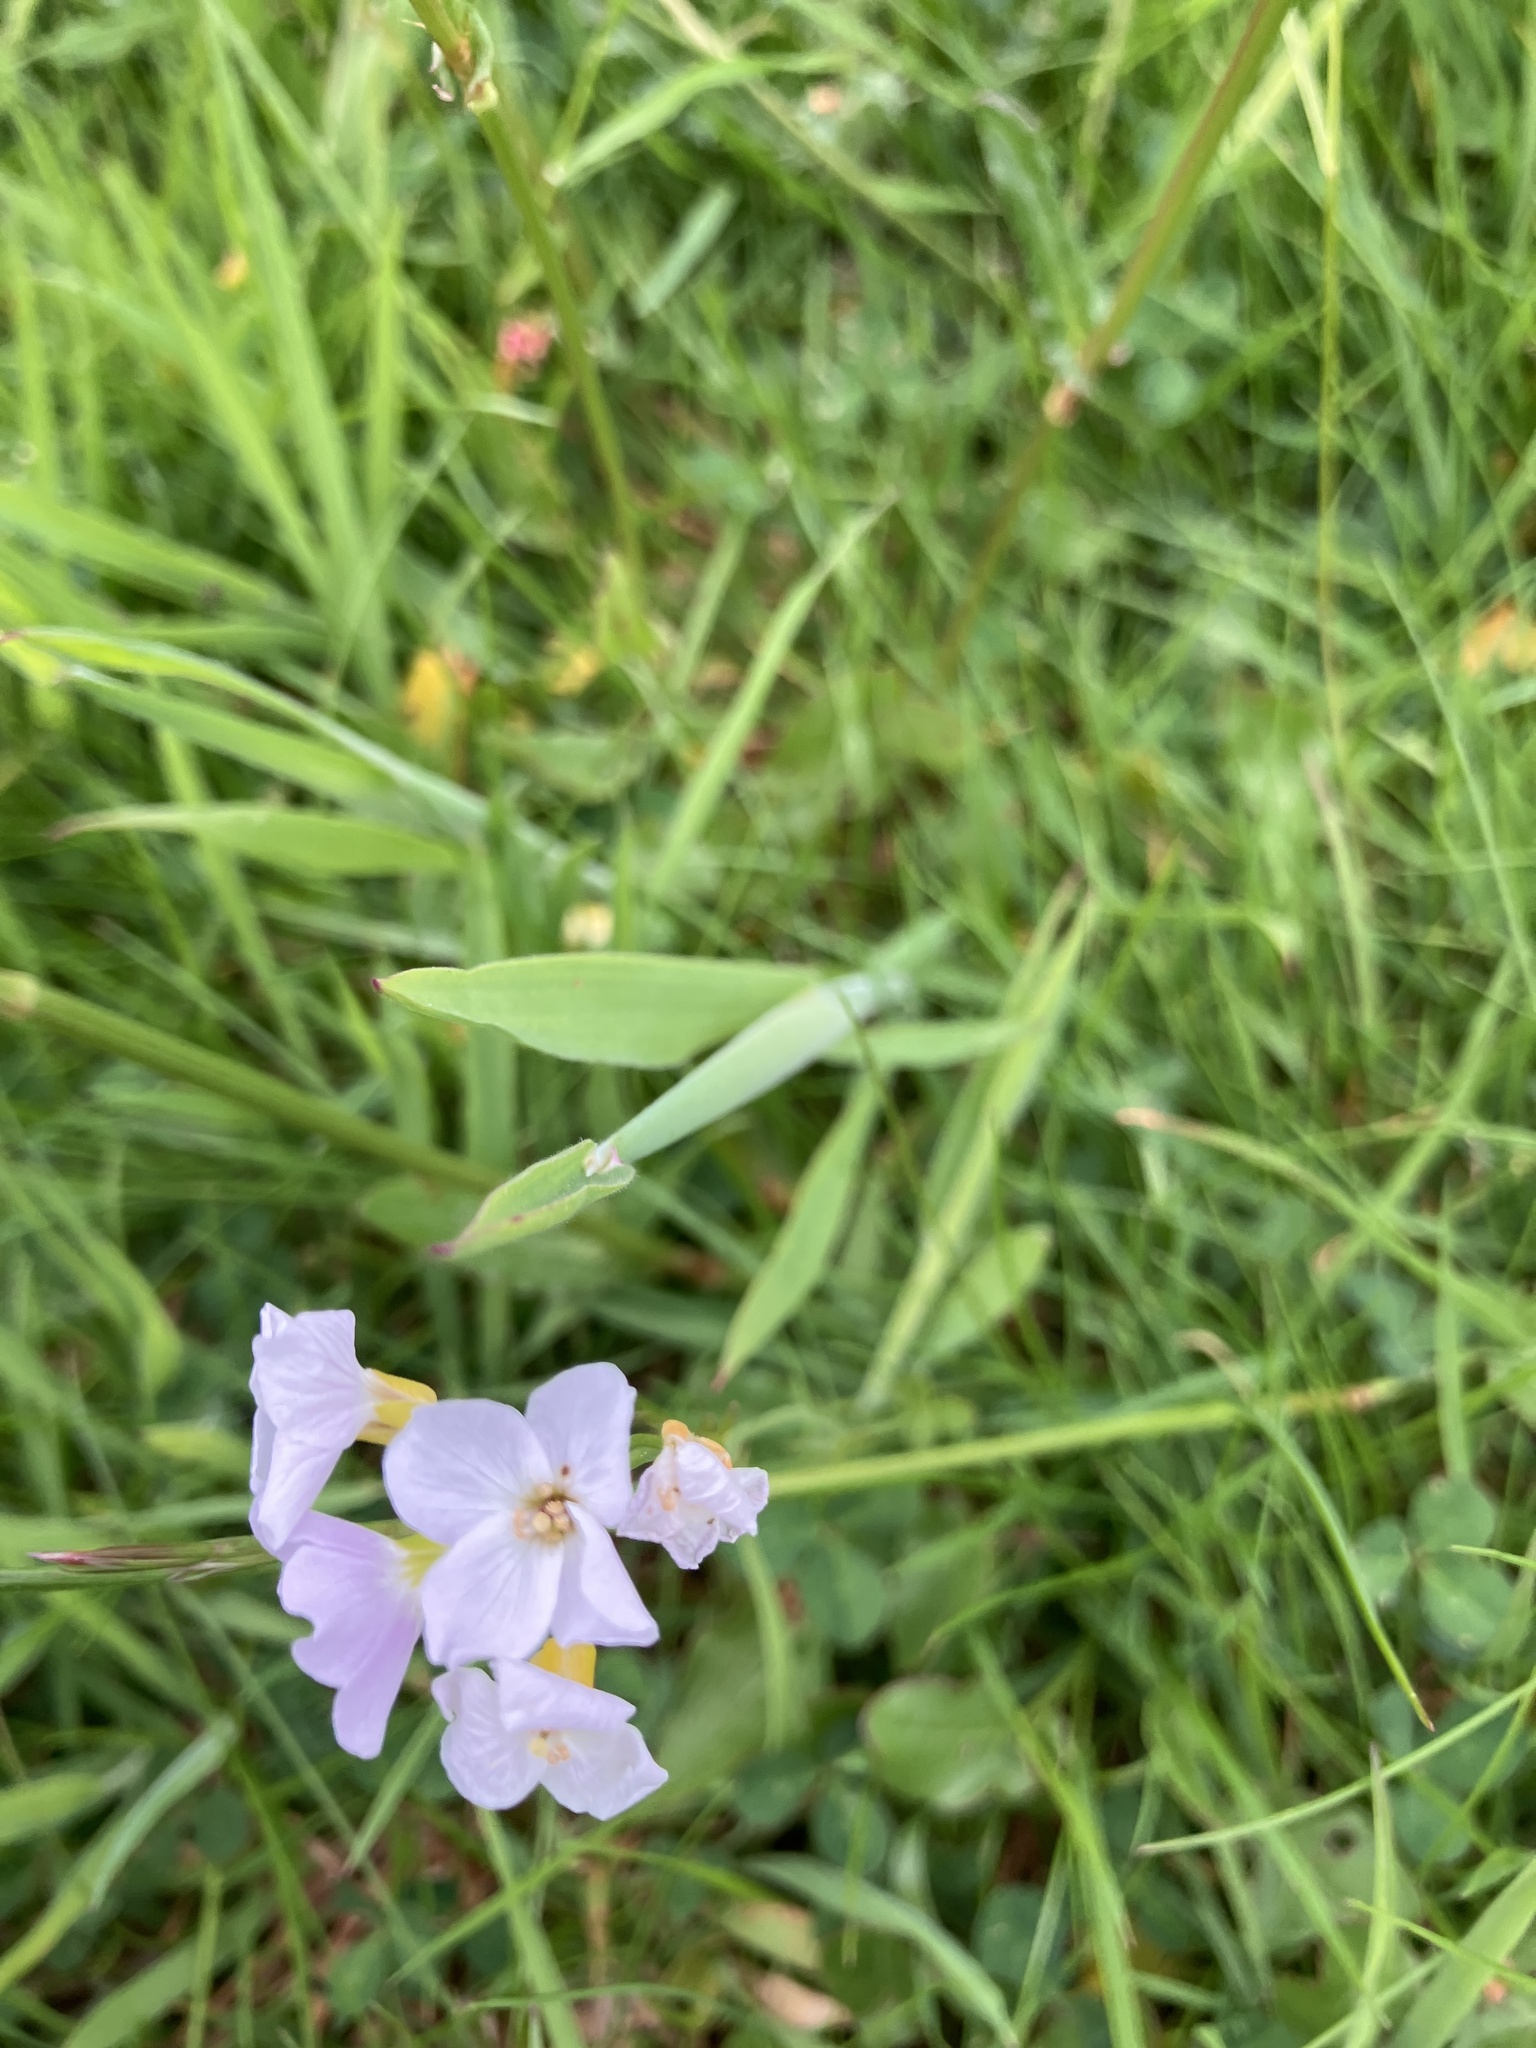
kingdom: Plantae
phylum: Tracheophyta
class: Magnoliopsida
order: Brassicales
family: Brassicaceae
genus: Cardamine
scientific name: Cardamine pratensis
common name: Cuckoo flower
